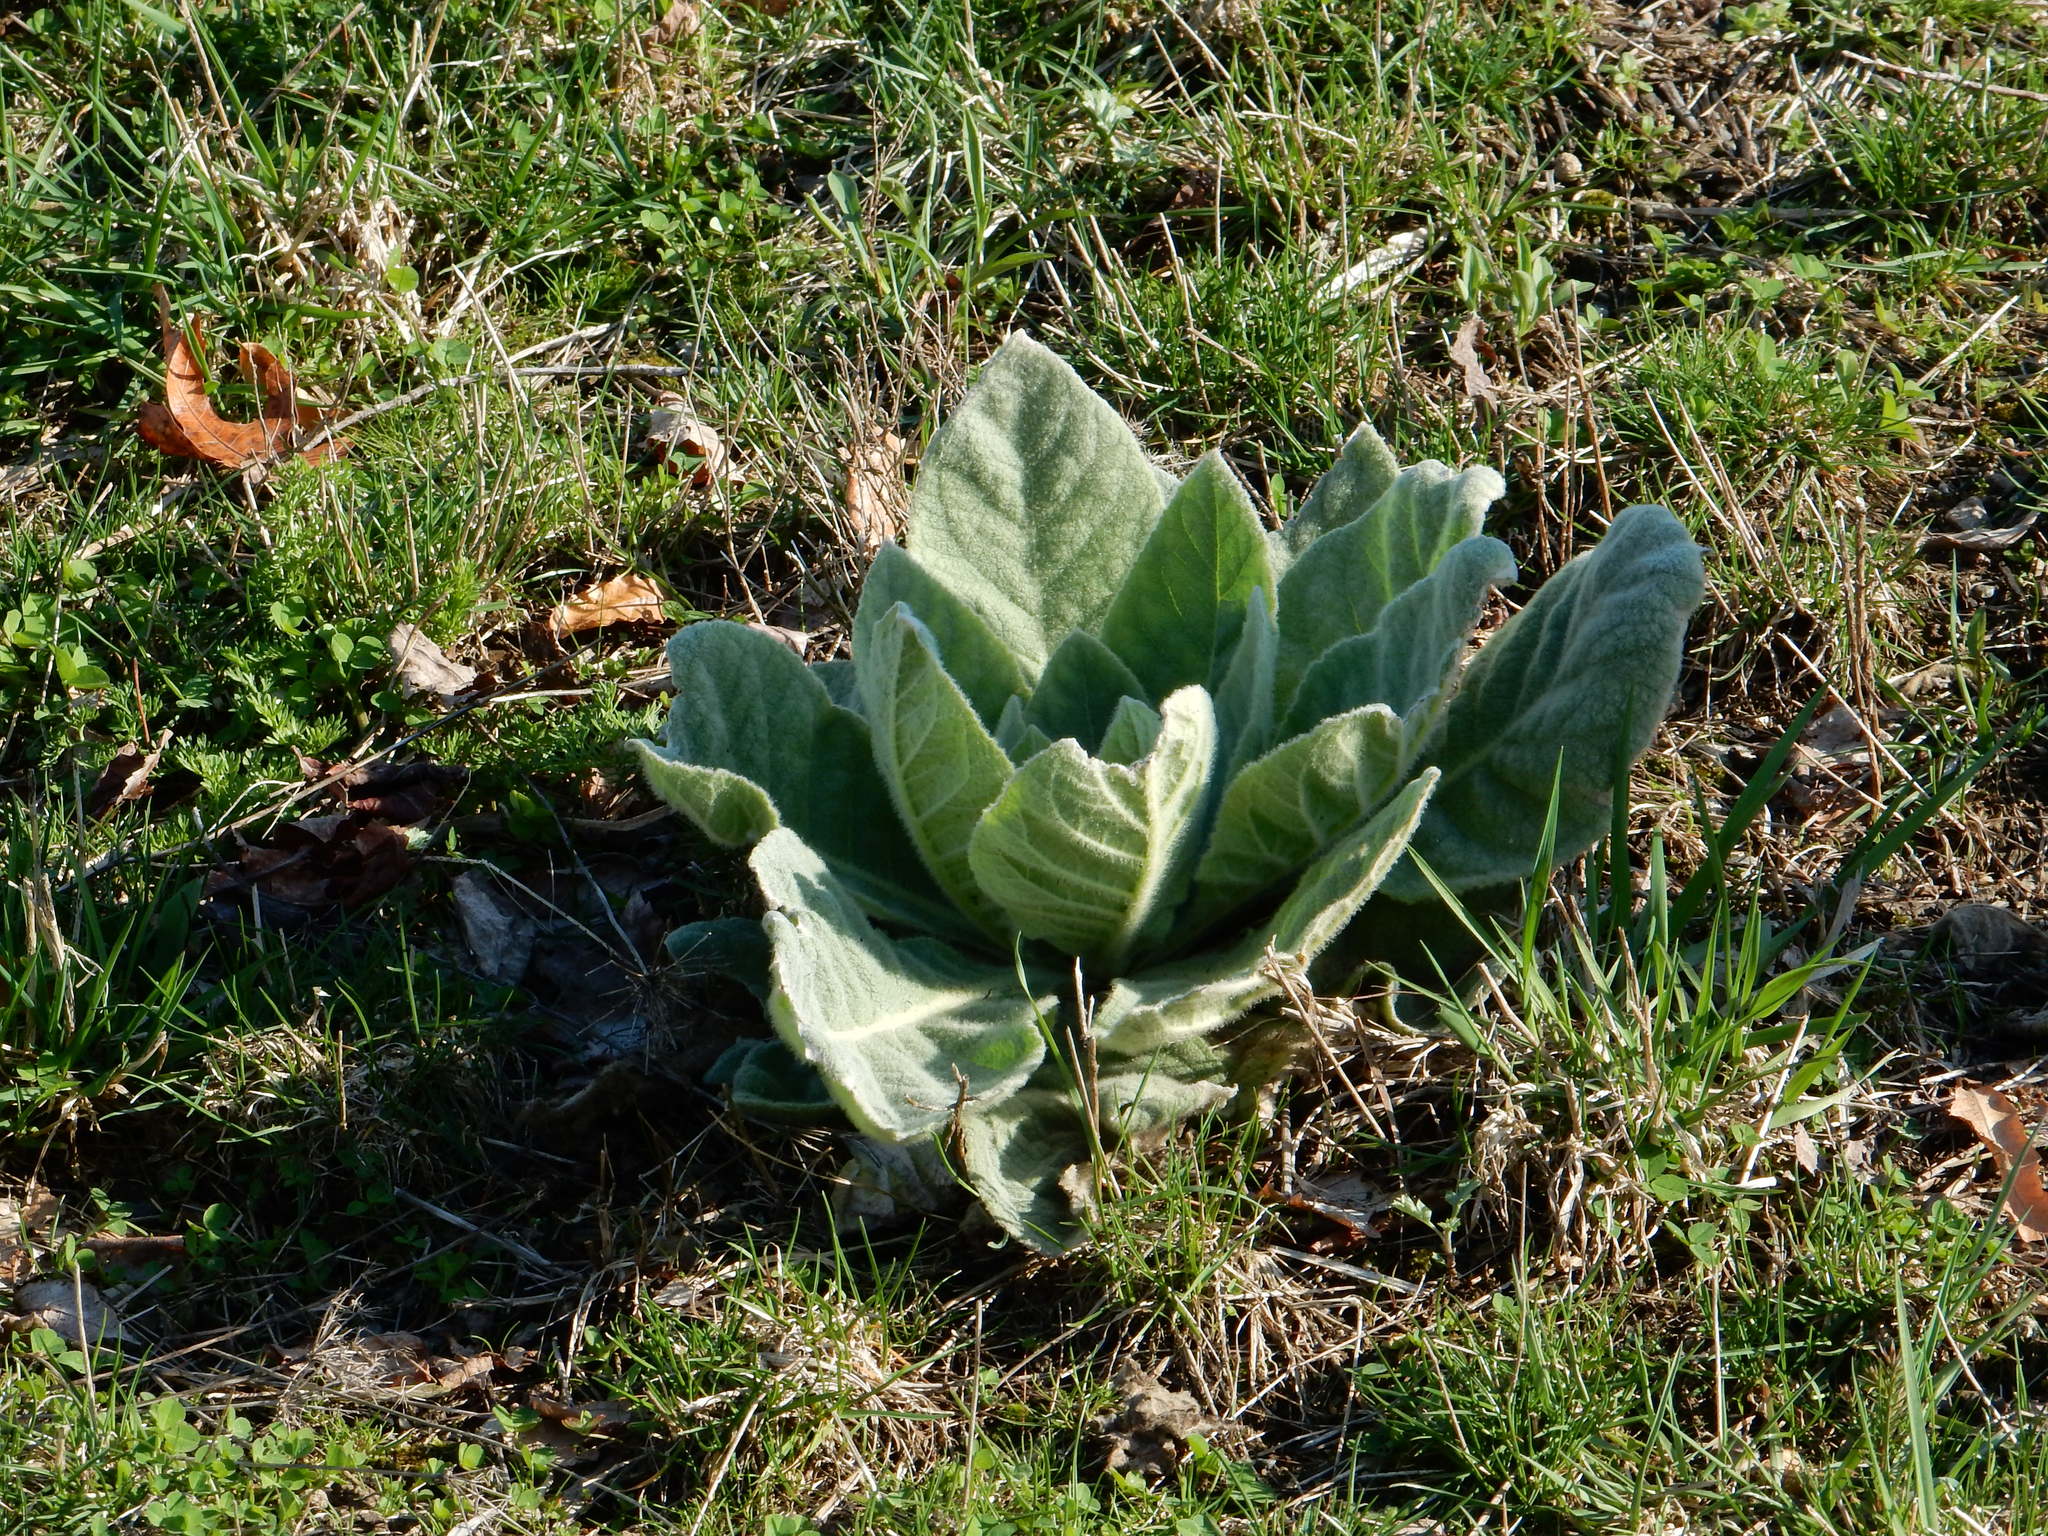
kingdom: Plantae
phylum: Tracheophyta
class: Magnoliopsida
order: Lamiales
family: Scrophulariaceae
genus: Verbascum
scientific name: Verbascum thapsus
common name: Common mullein
